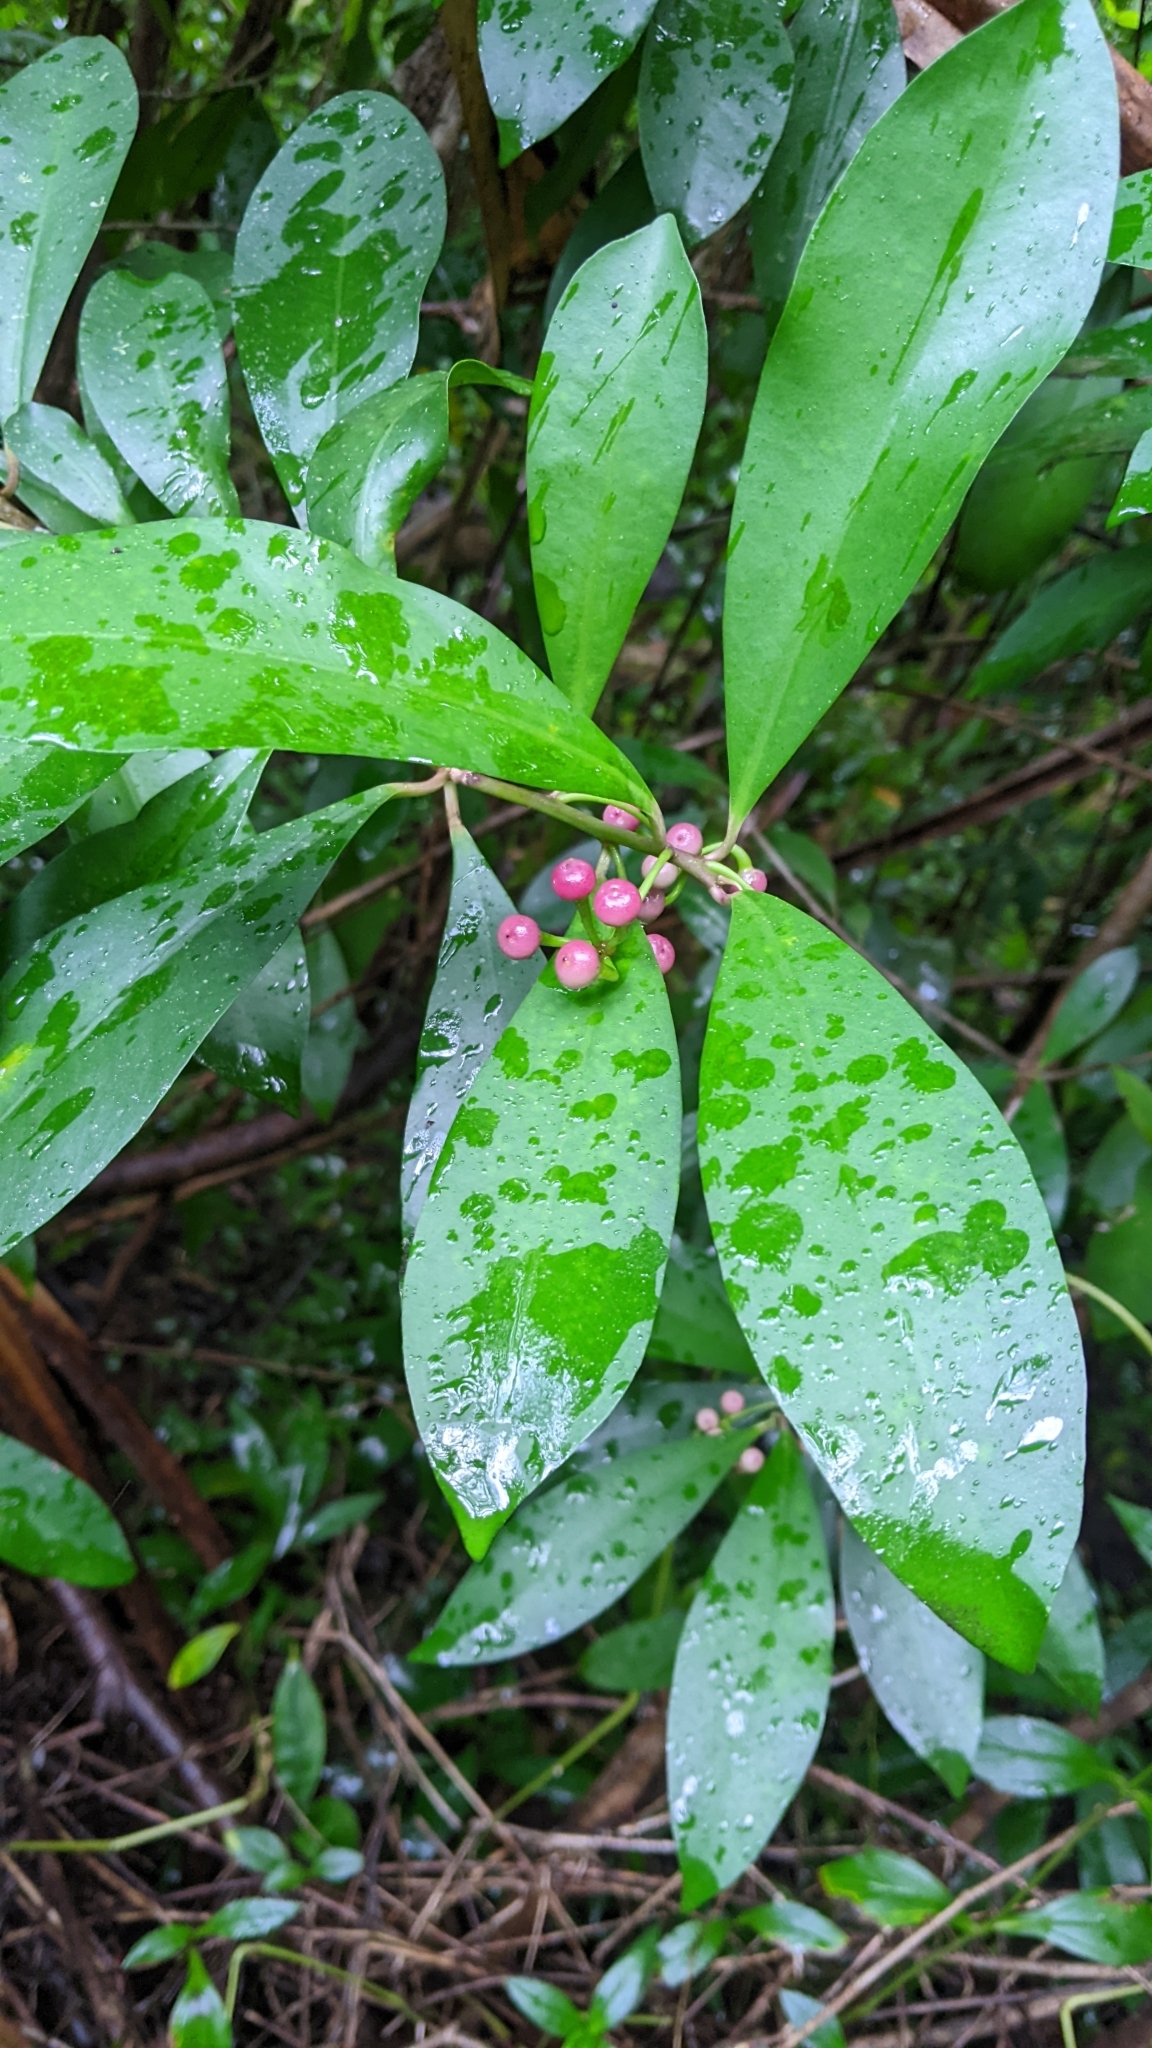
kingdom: Plantae
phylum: Tracheophyta
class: Magnoliopsida
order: Ericales
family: Primulaceae
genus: Ardisia
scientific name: Ardisia elliptica
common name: Shoebutton
